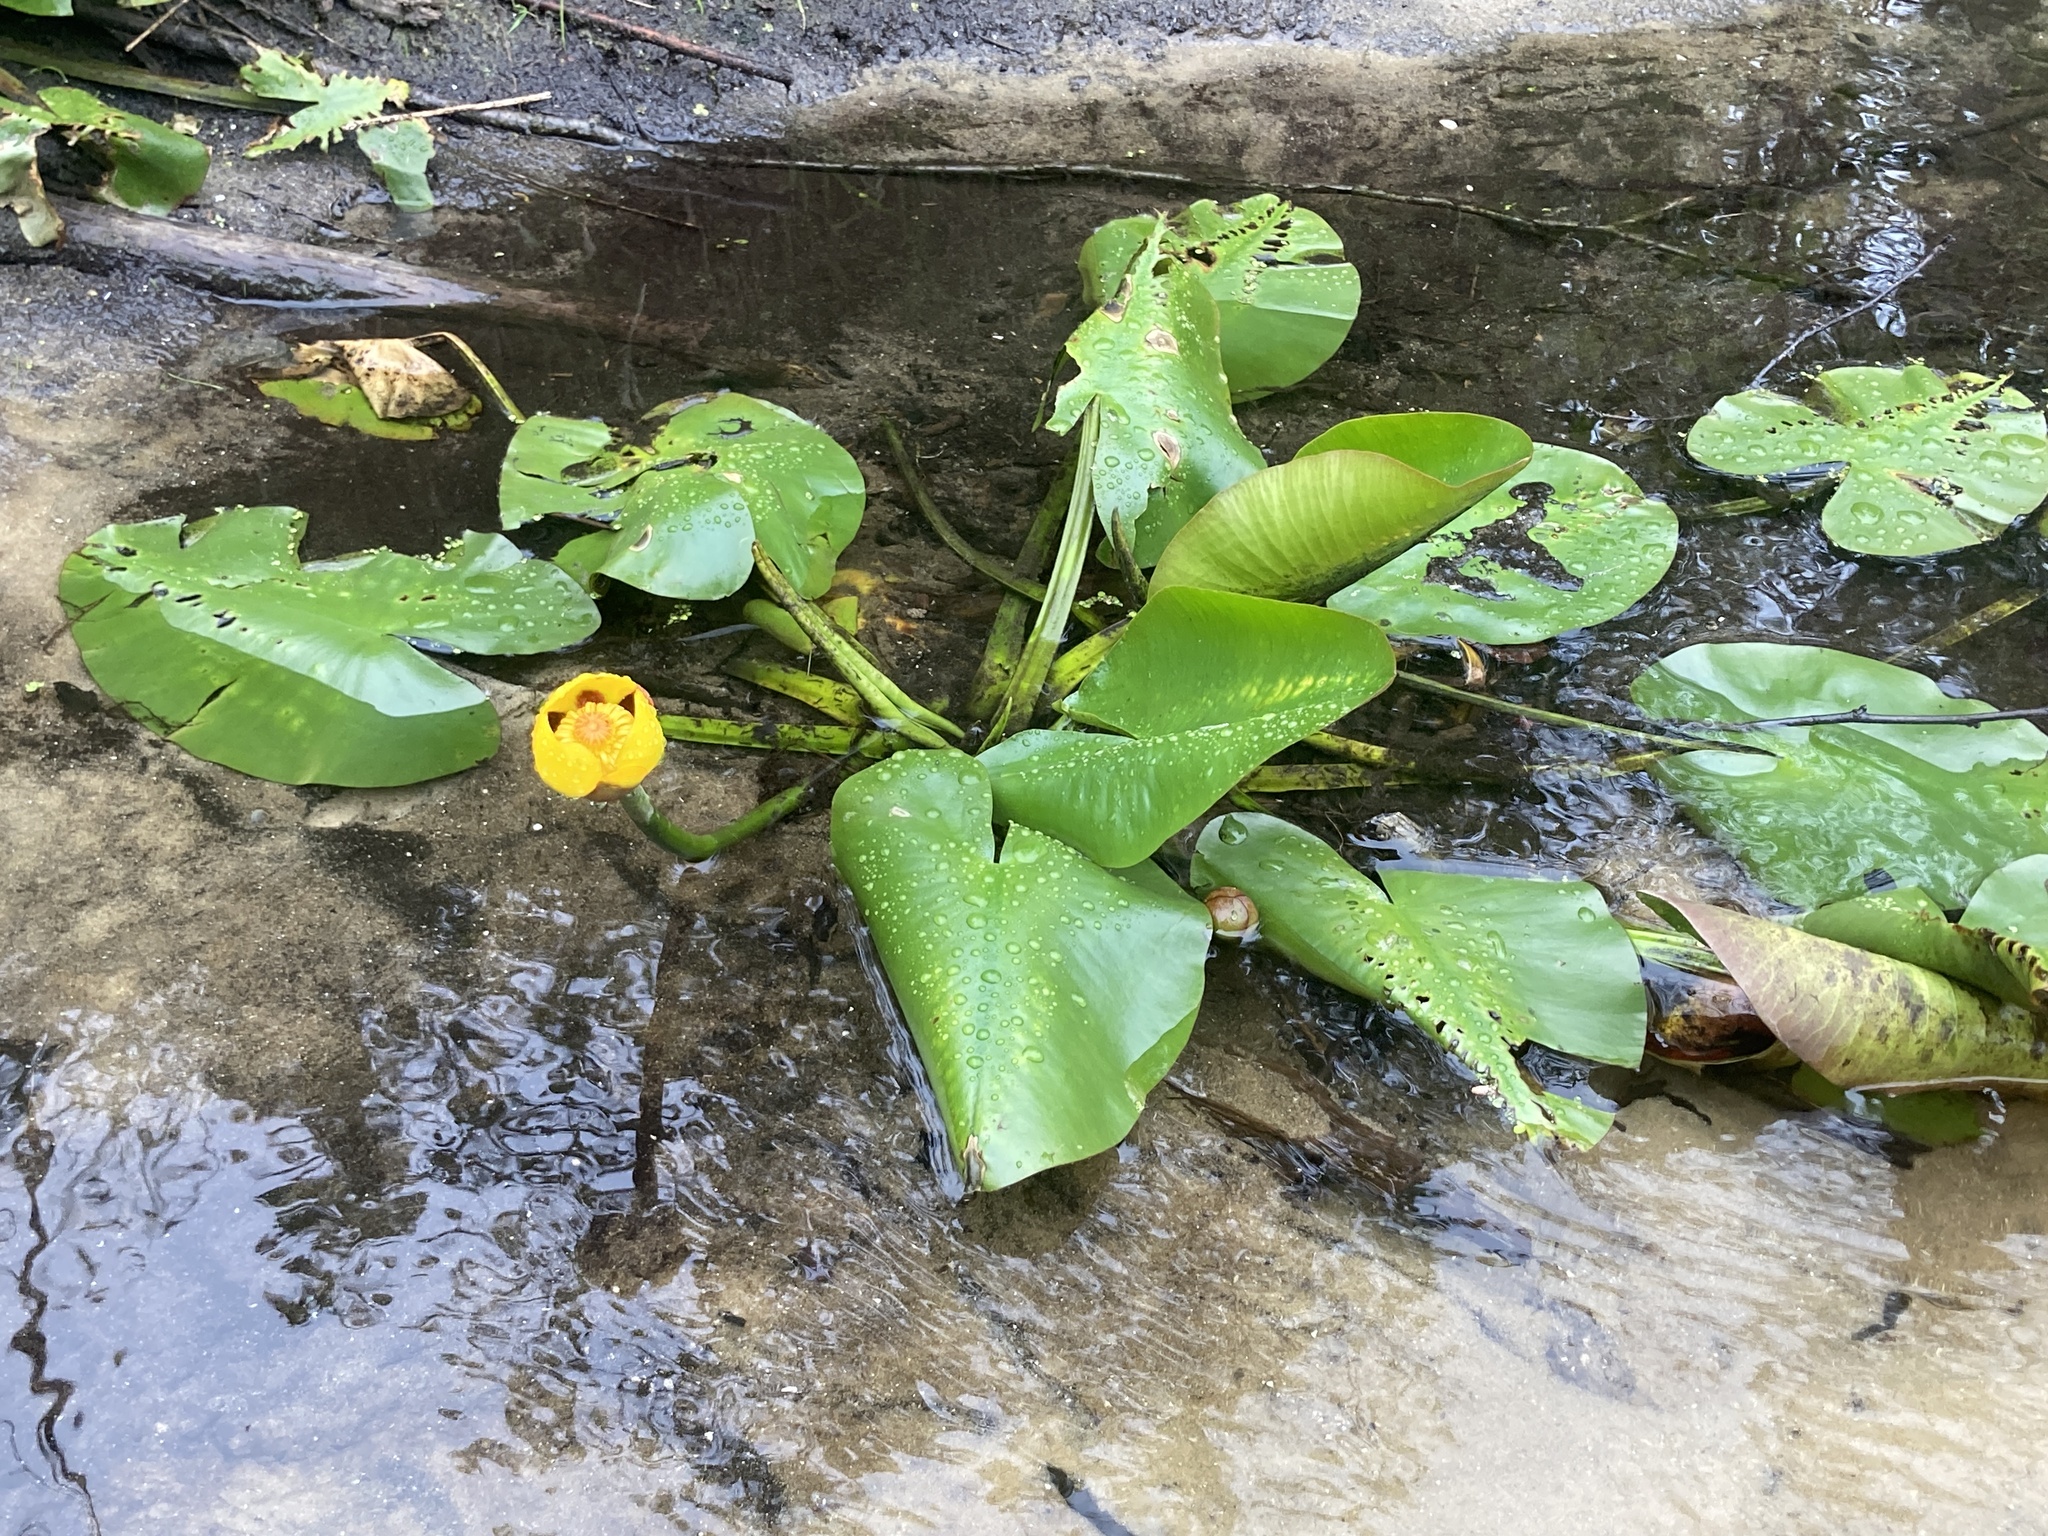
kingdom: Plantae
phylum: Tracheophyta
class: Magnoliopsida
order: Nymphaeales
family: Nymphaeaceae
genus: Nuphar
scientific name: Nuphar variegata
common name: Beaver-root
